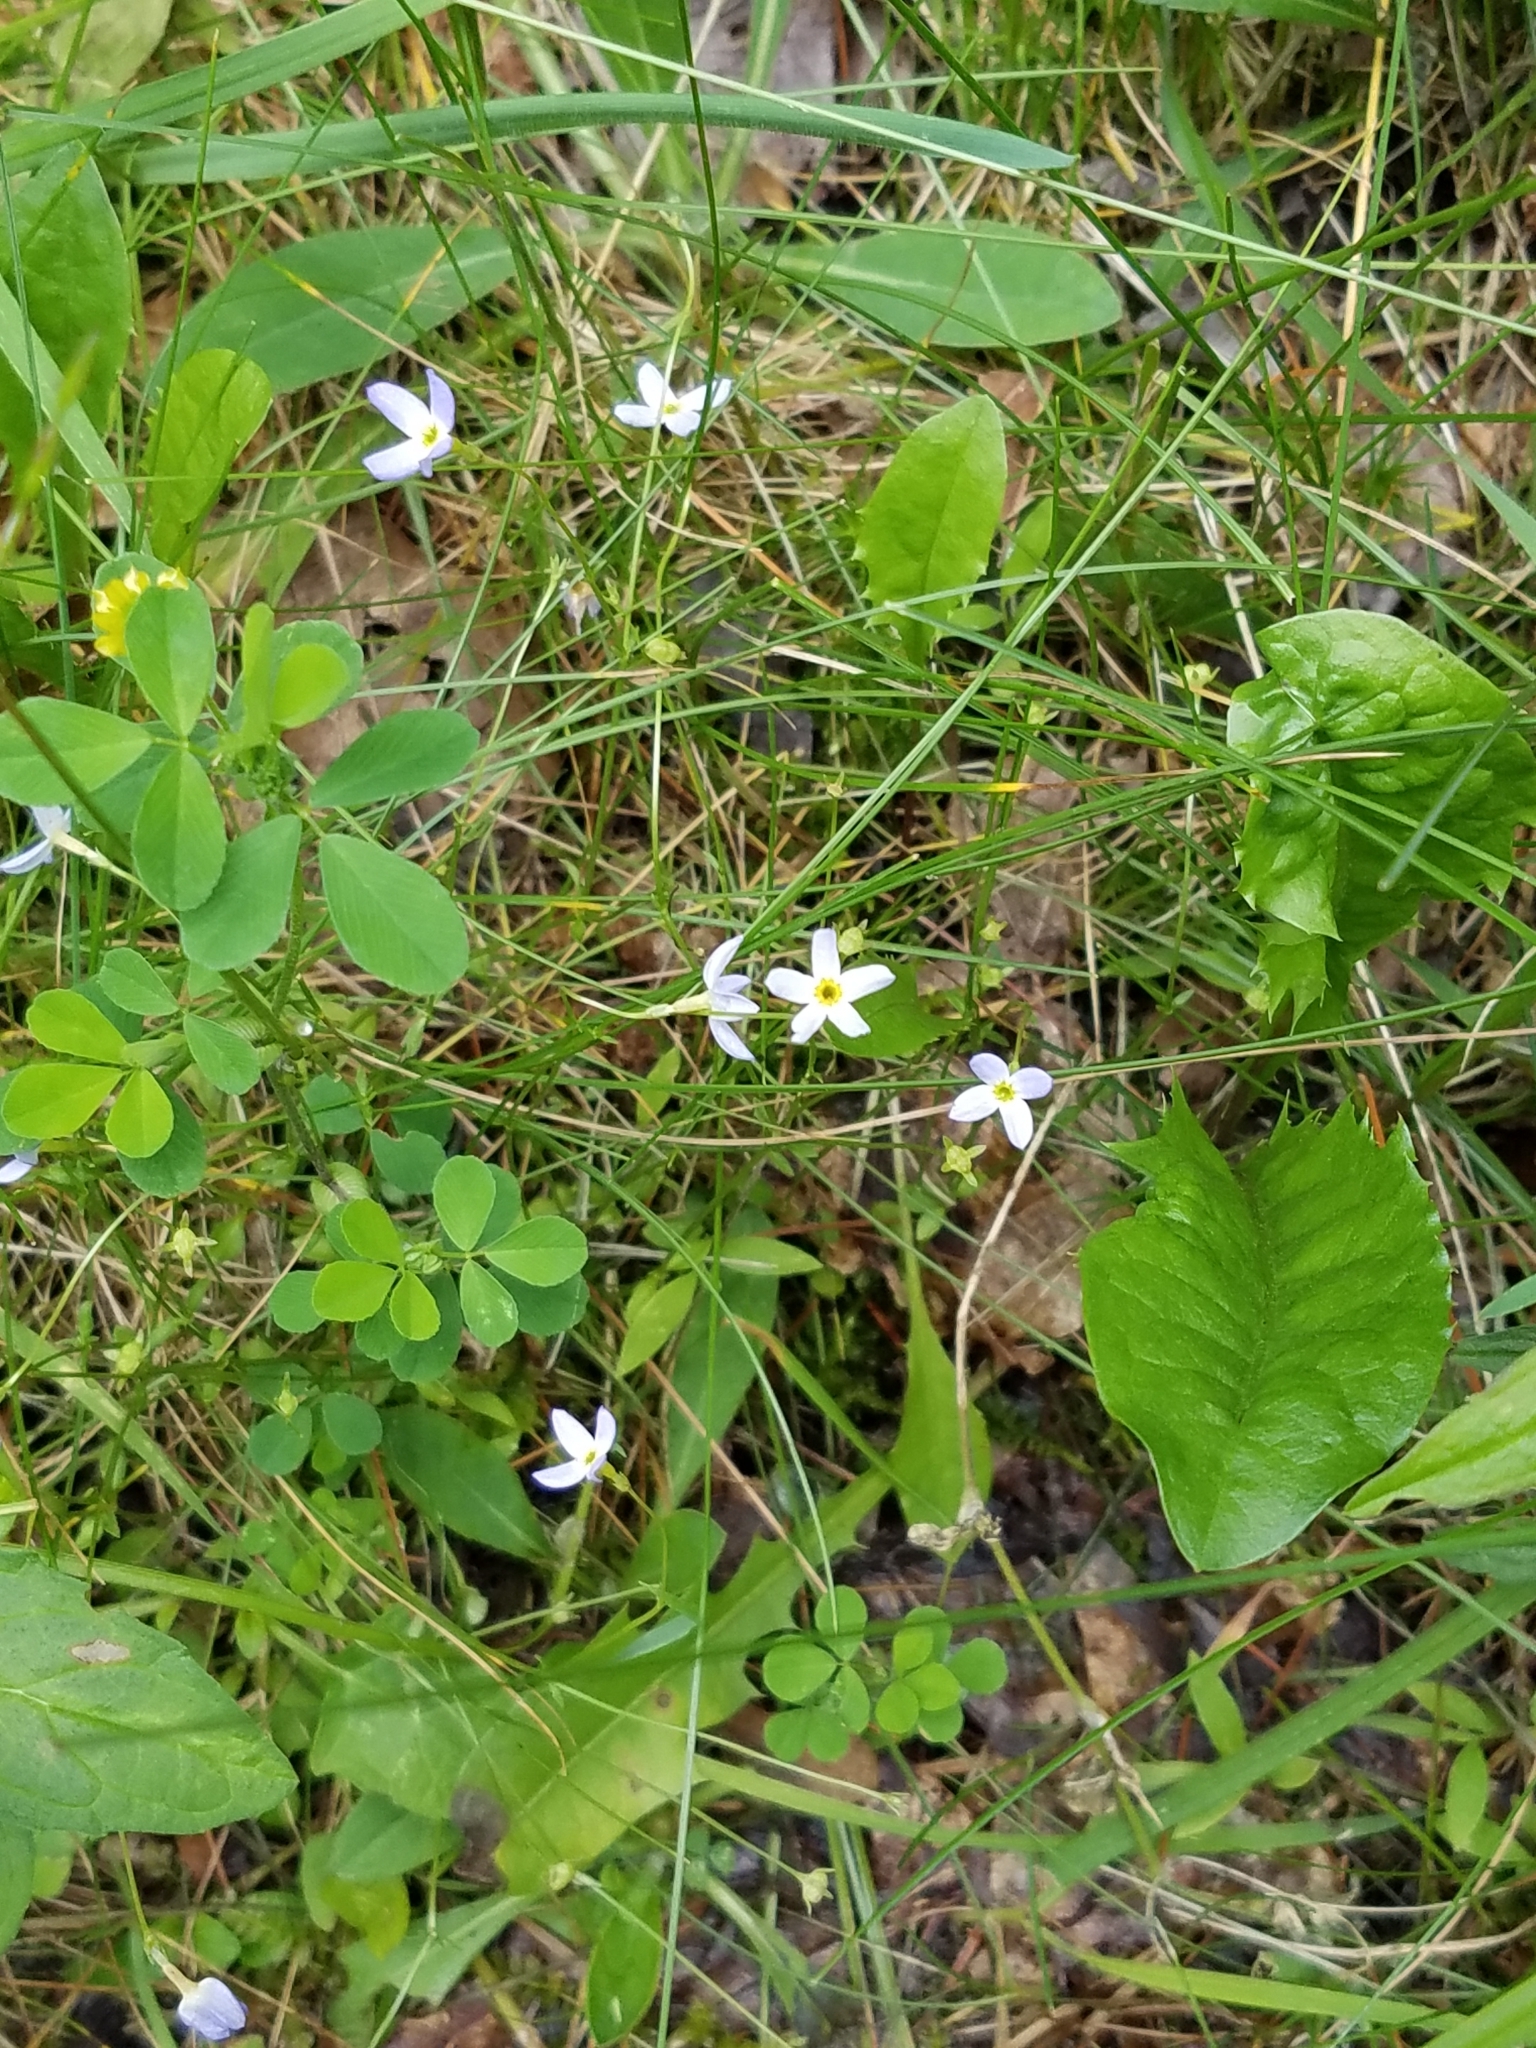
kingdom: Plantae
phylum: Tracheophyta
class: Magnoliopsida
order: Gentianales
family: Rubiaceae
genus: Houstonia
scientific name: Houstonia caerulea
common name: Bluets
